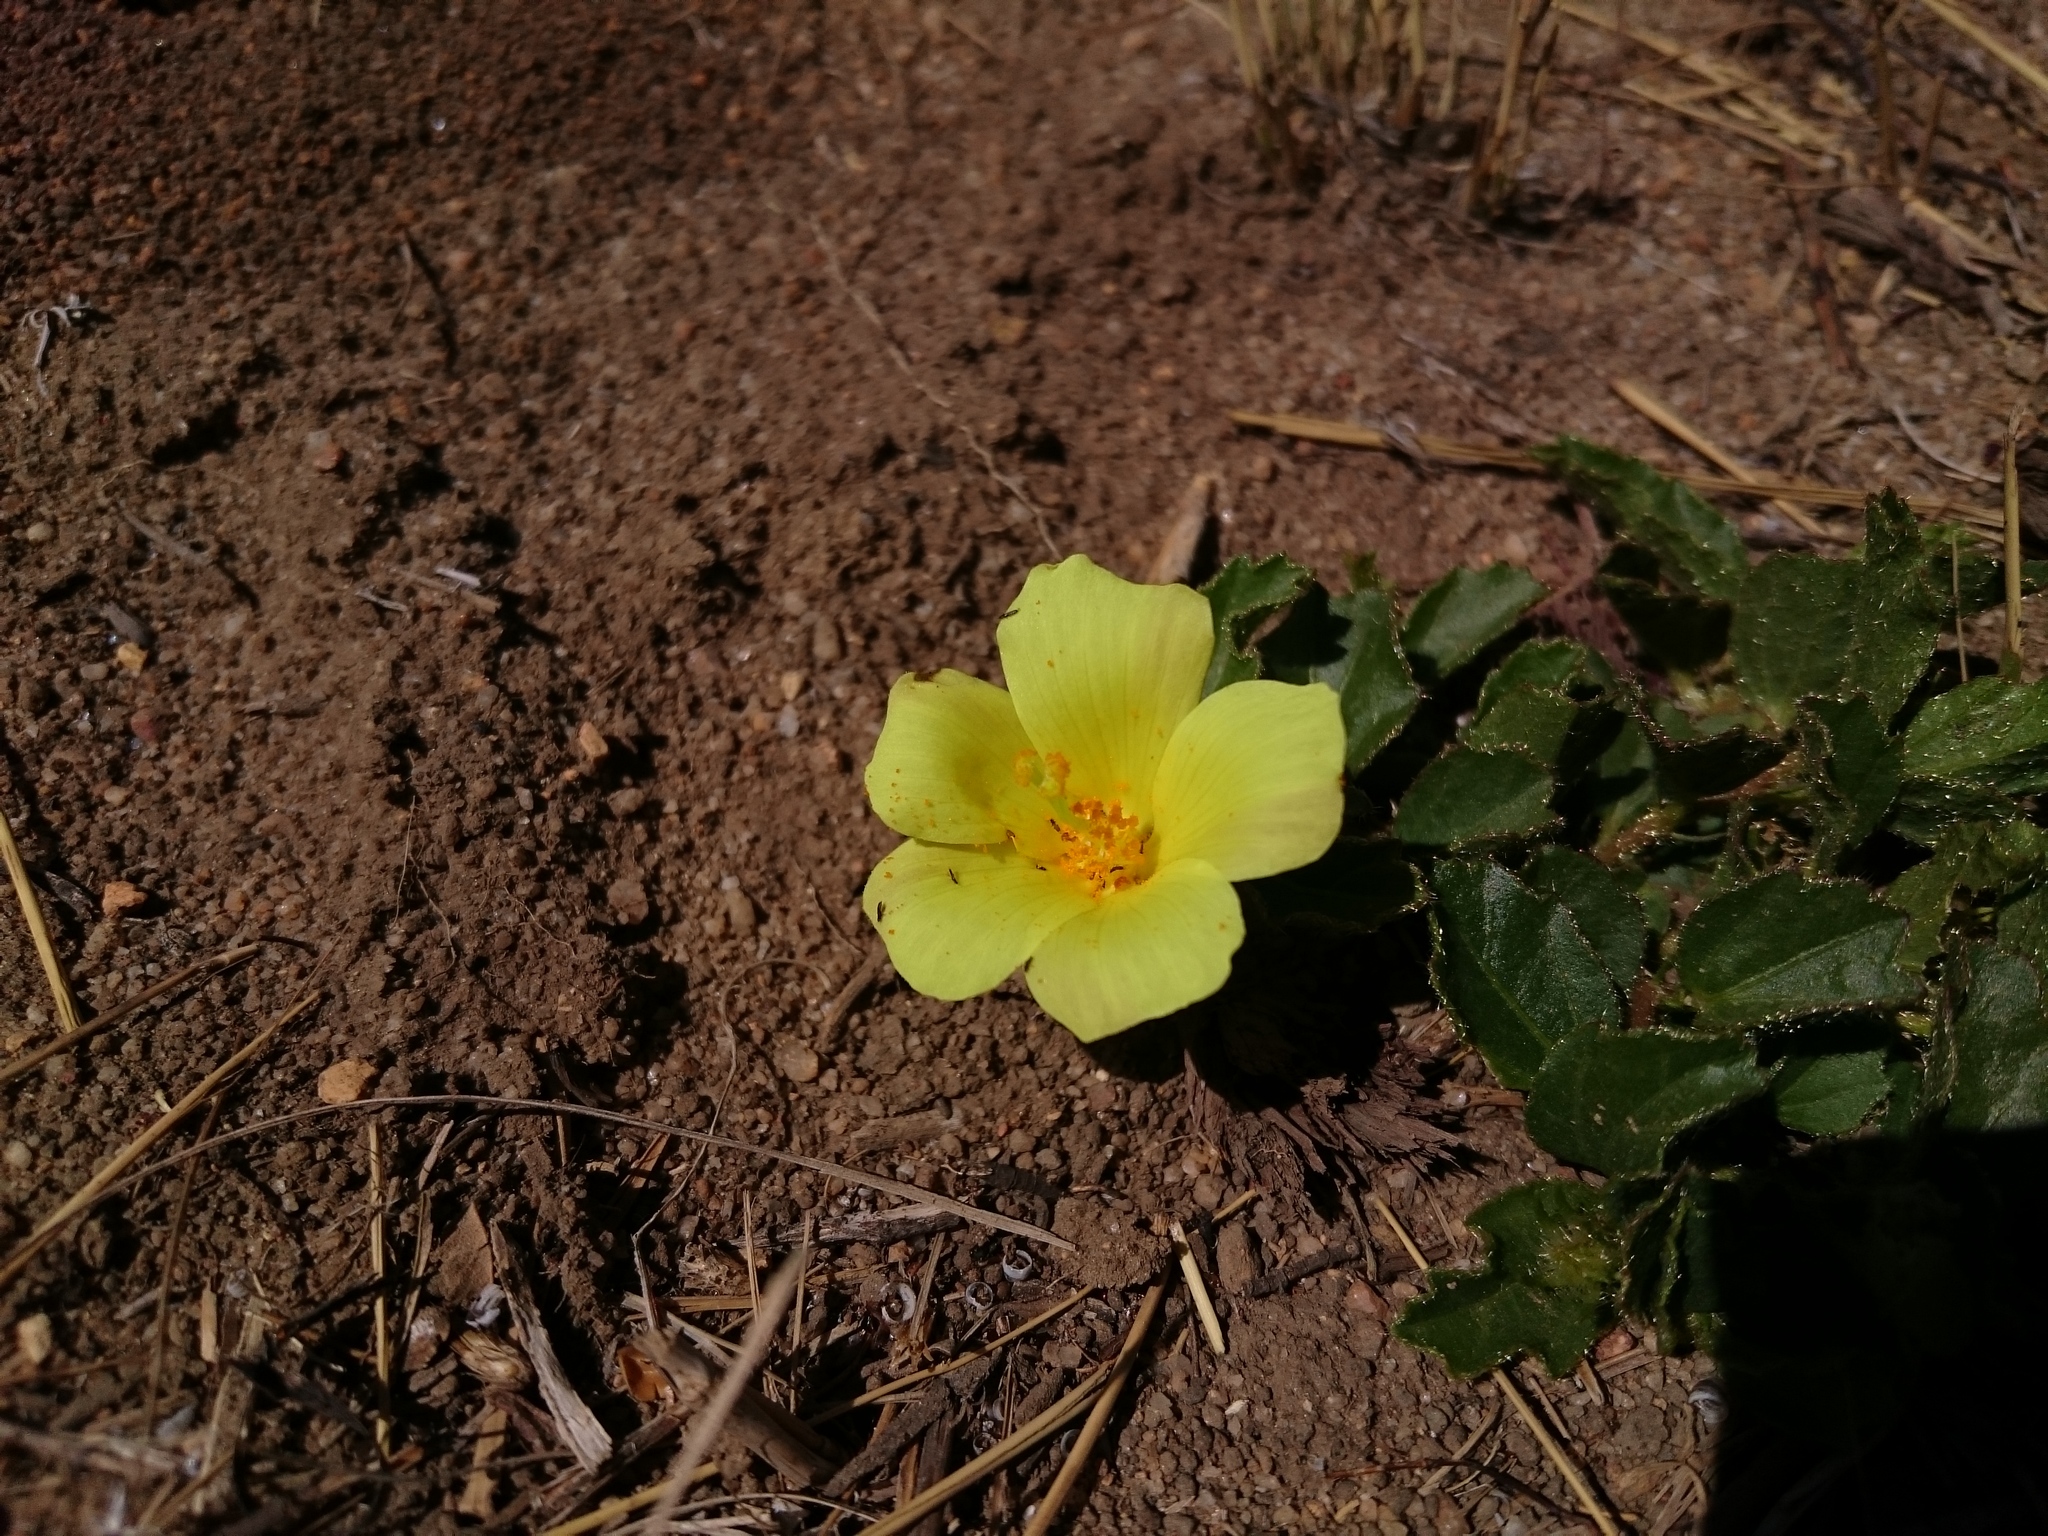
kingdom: Plantae
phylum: Tracheophyta
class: Magnoliopsida
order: Malvales
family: Malvaceae
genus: Hibiscus
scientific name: Hibiscus aethiopicus
